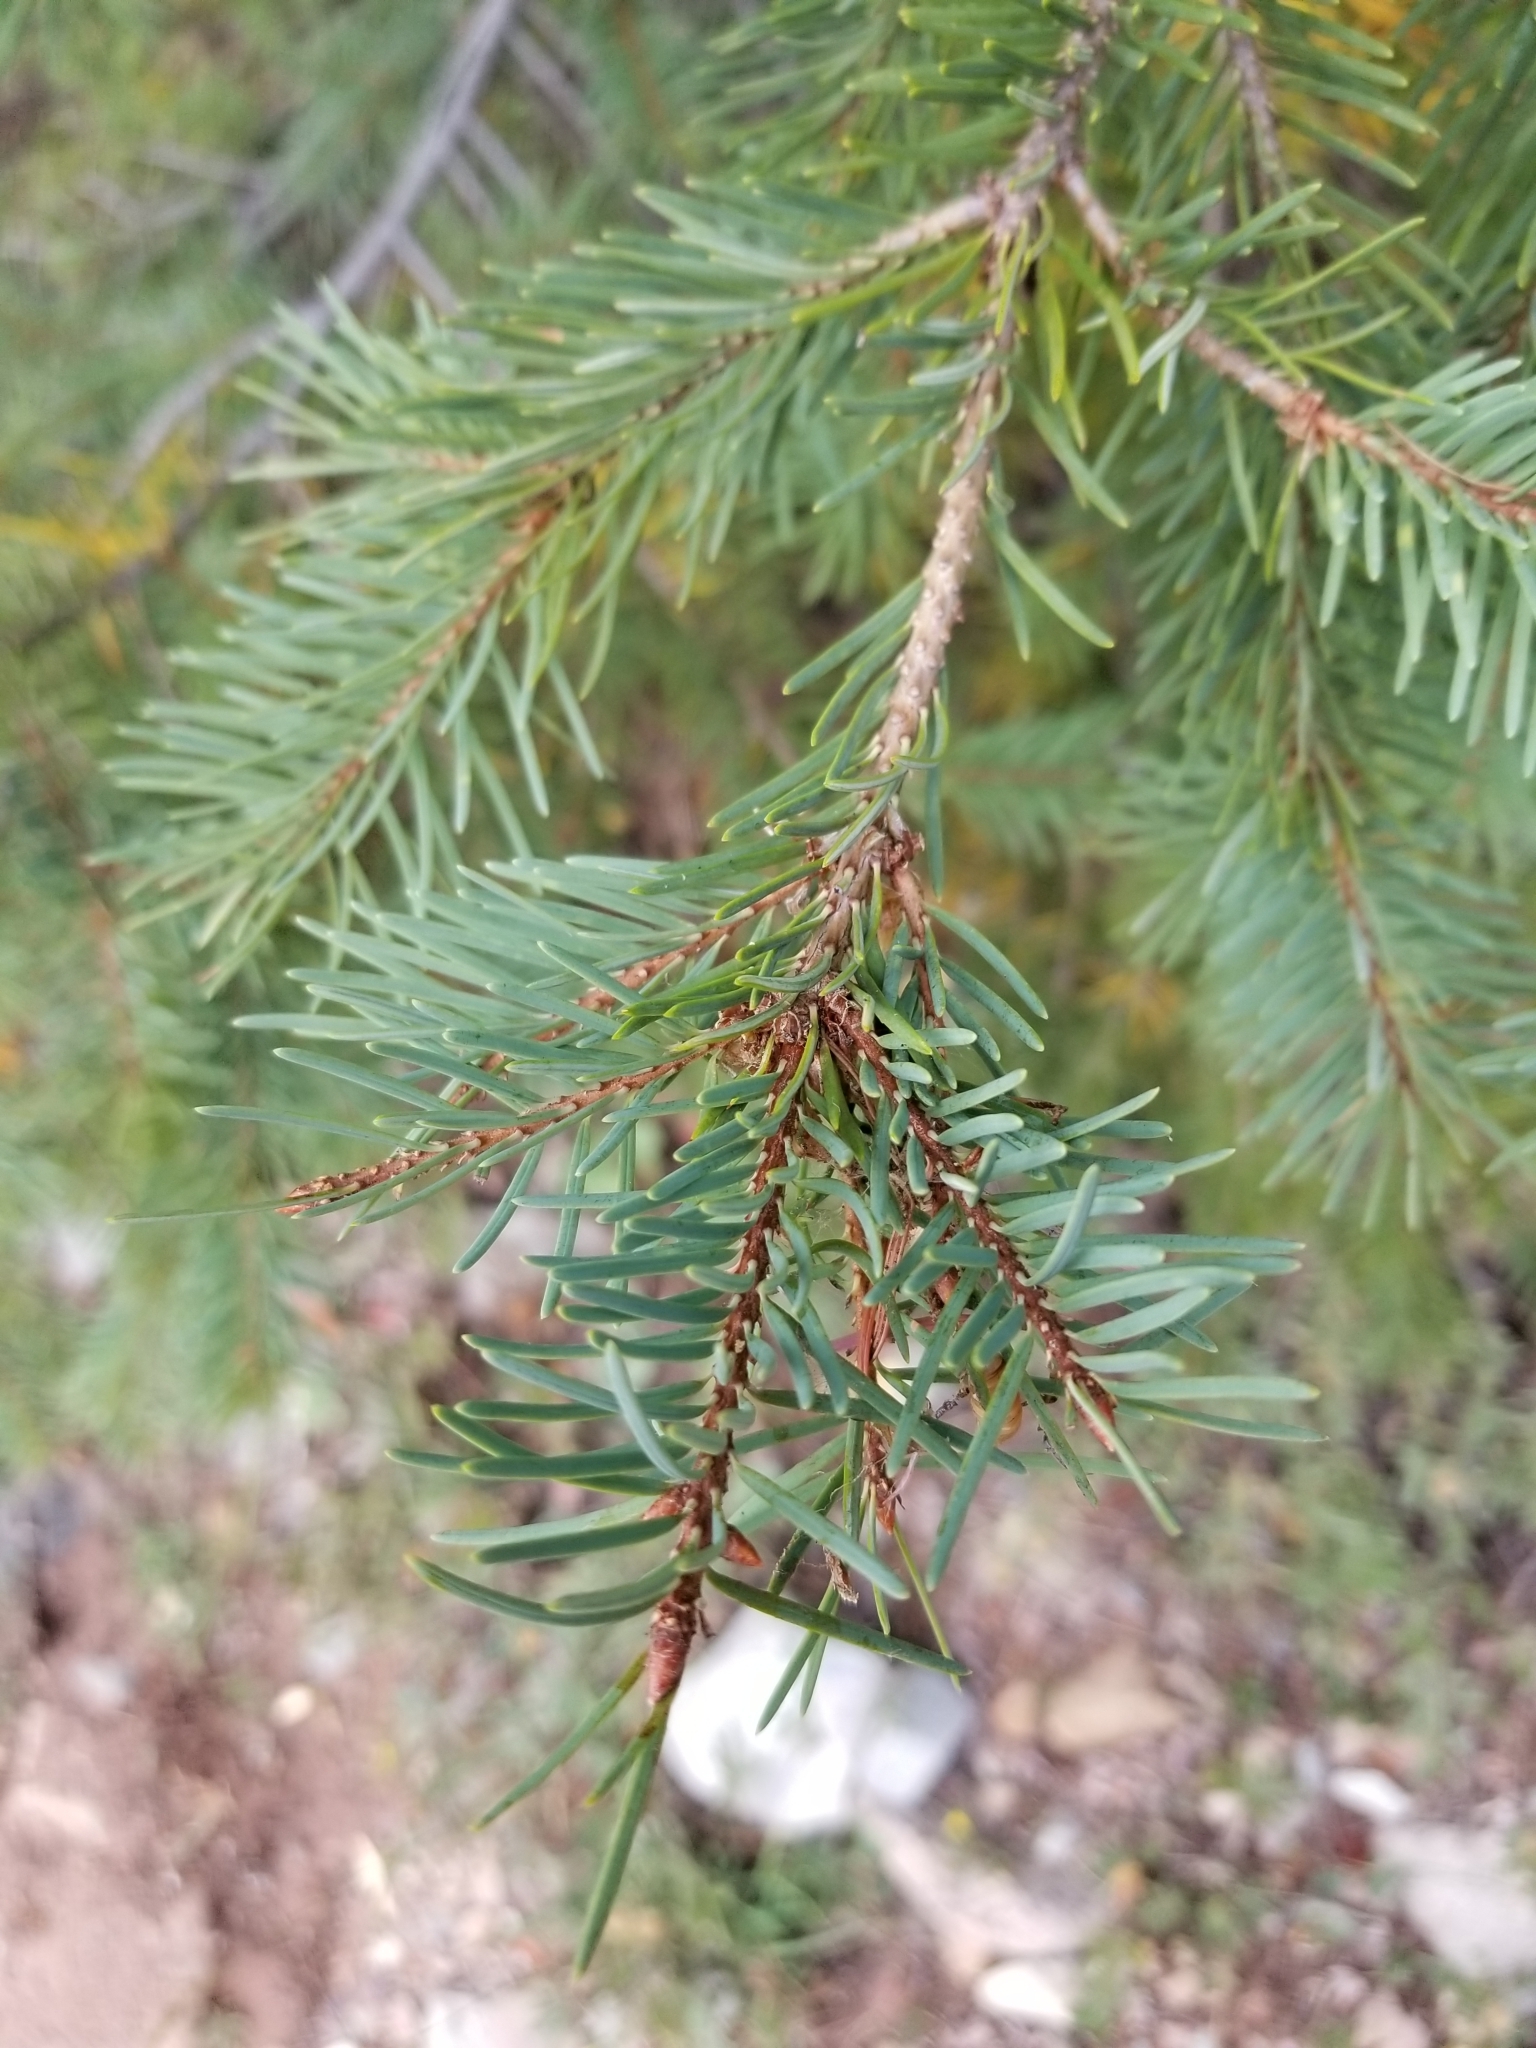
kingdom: Plantae
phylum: Tracheophyta
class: Pinopsida
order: Pinales
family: Pinaceae
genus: Picea
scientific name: Picea engelmannii
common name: Engelmann spruce
